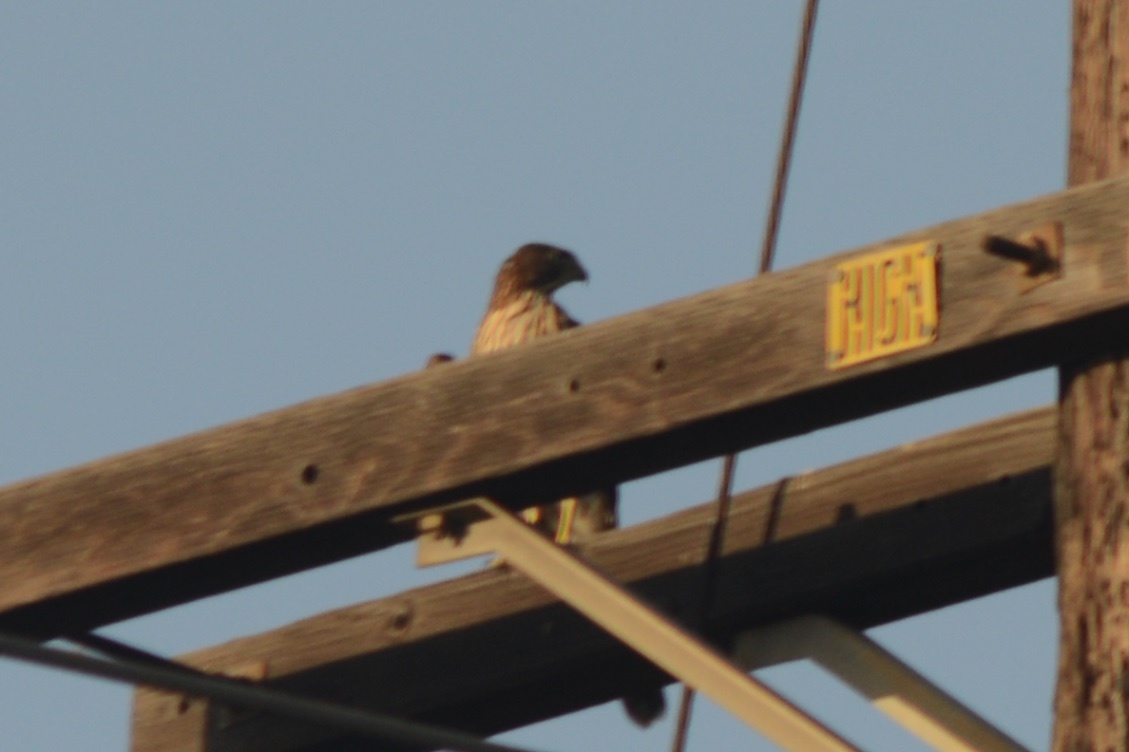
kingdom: Animalia
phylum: Chordata
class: Aves
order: Accipitriformes
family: Accipitridae
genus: Accipiter
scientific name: Accipiter cooperii
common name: Cooper's hawk
